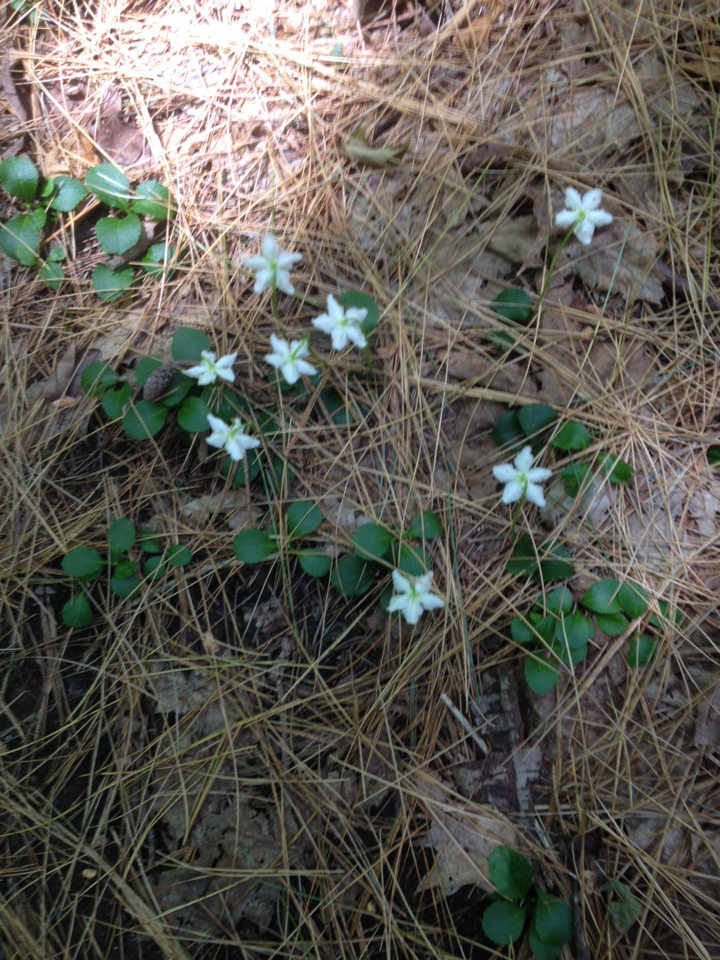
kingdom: Plantae
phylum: Tracheophyta
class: Magnoliopsida
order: Ericales
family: Ericaceae
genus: Moneses
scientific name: Moneses uniflora
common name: One-flowered wintergreen
